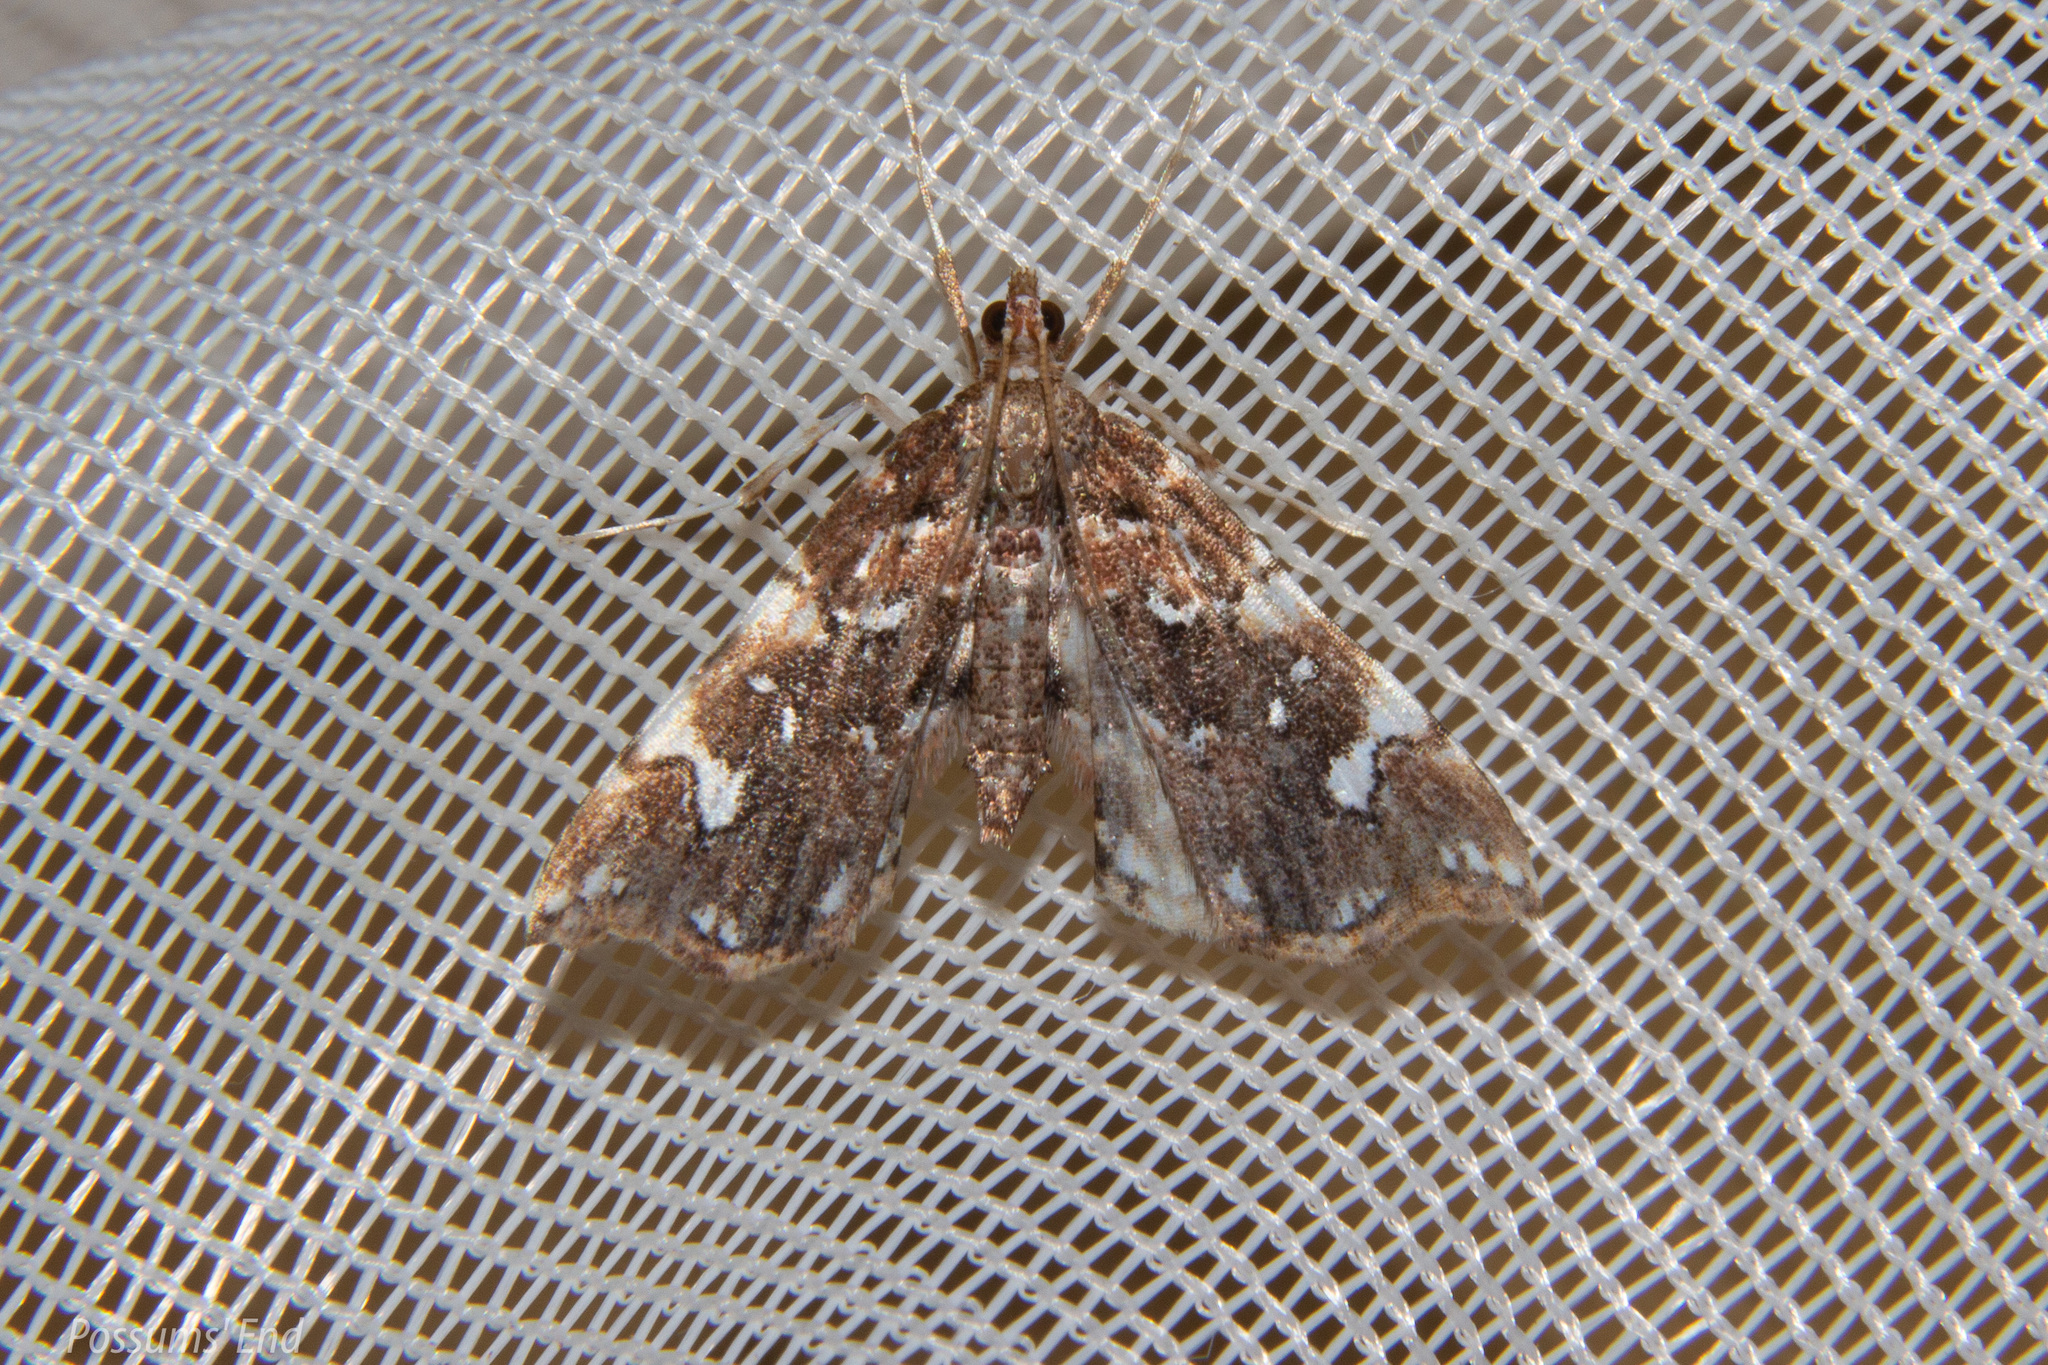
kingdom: Animalia
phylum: Arthropoda
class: Insecta
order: Lepidoptera
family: Pyralidae
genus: Musotima
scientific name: Musotima nitidalis
